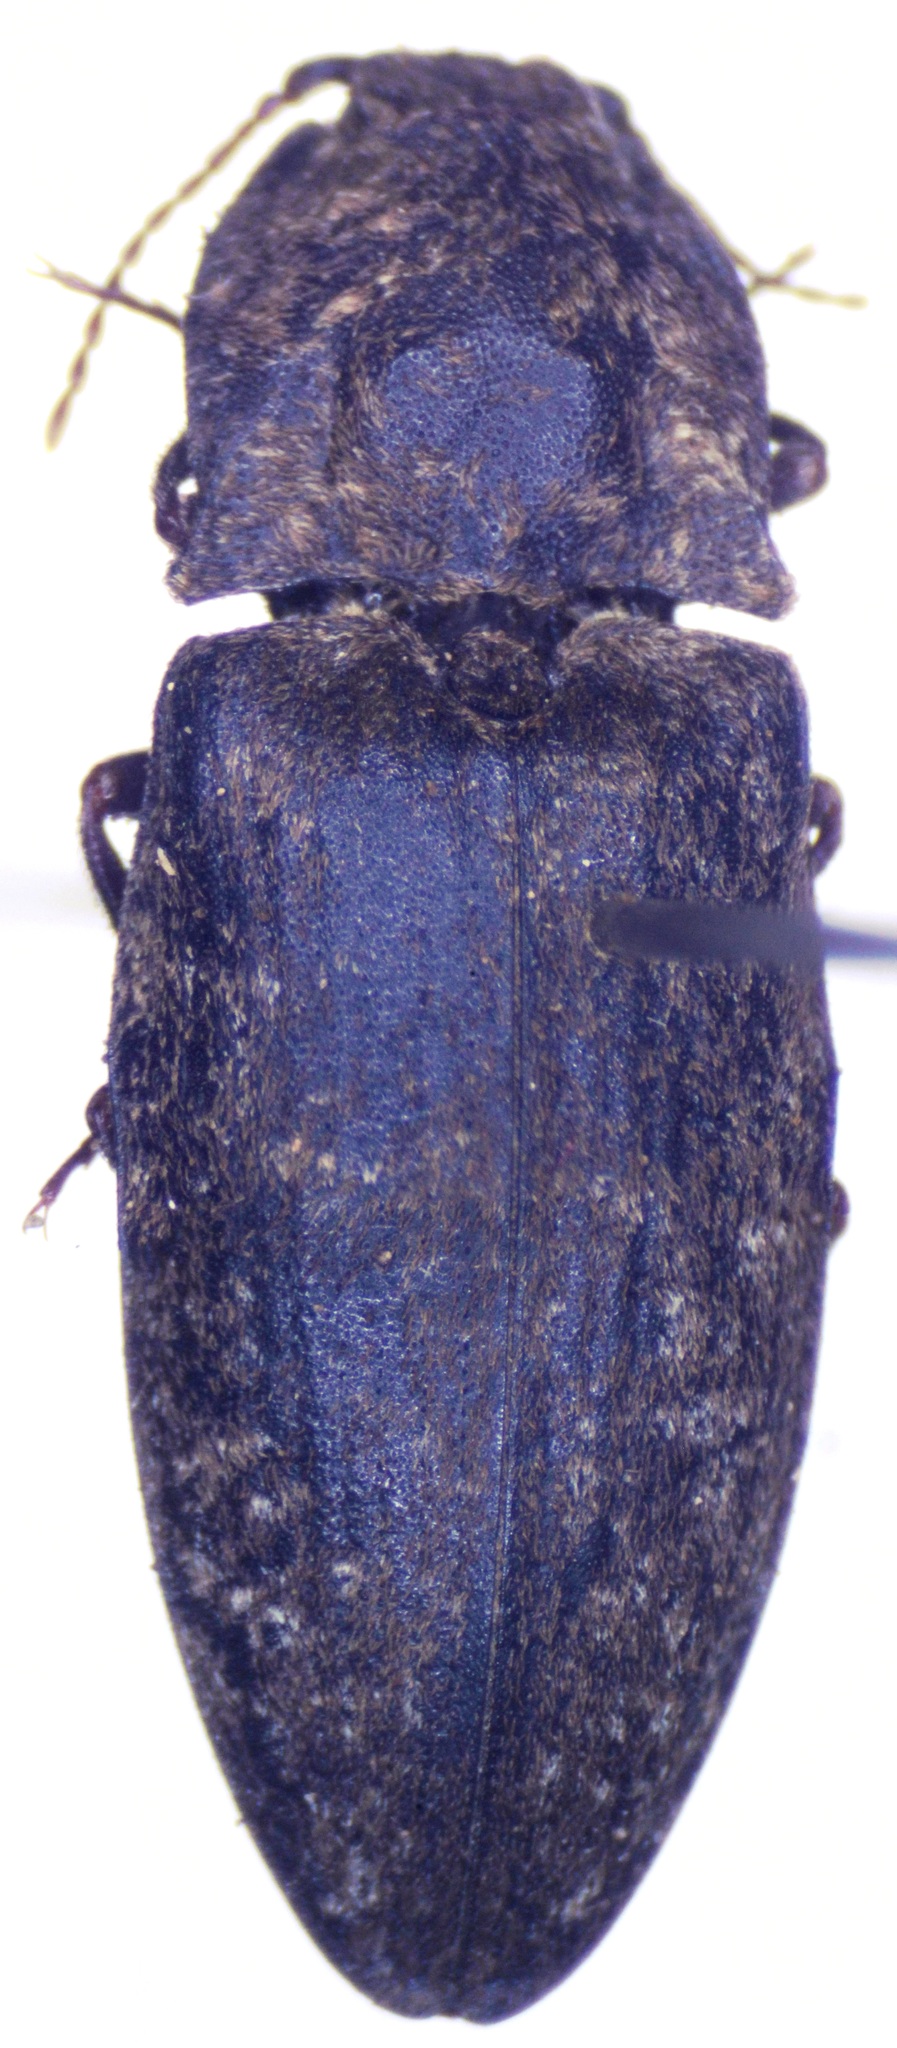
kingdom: Animalia
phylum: Arthropoda
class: Insecta
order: Coleoptera
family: Elateridae
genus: Agrypnus
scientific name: Agrypnus murinus
